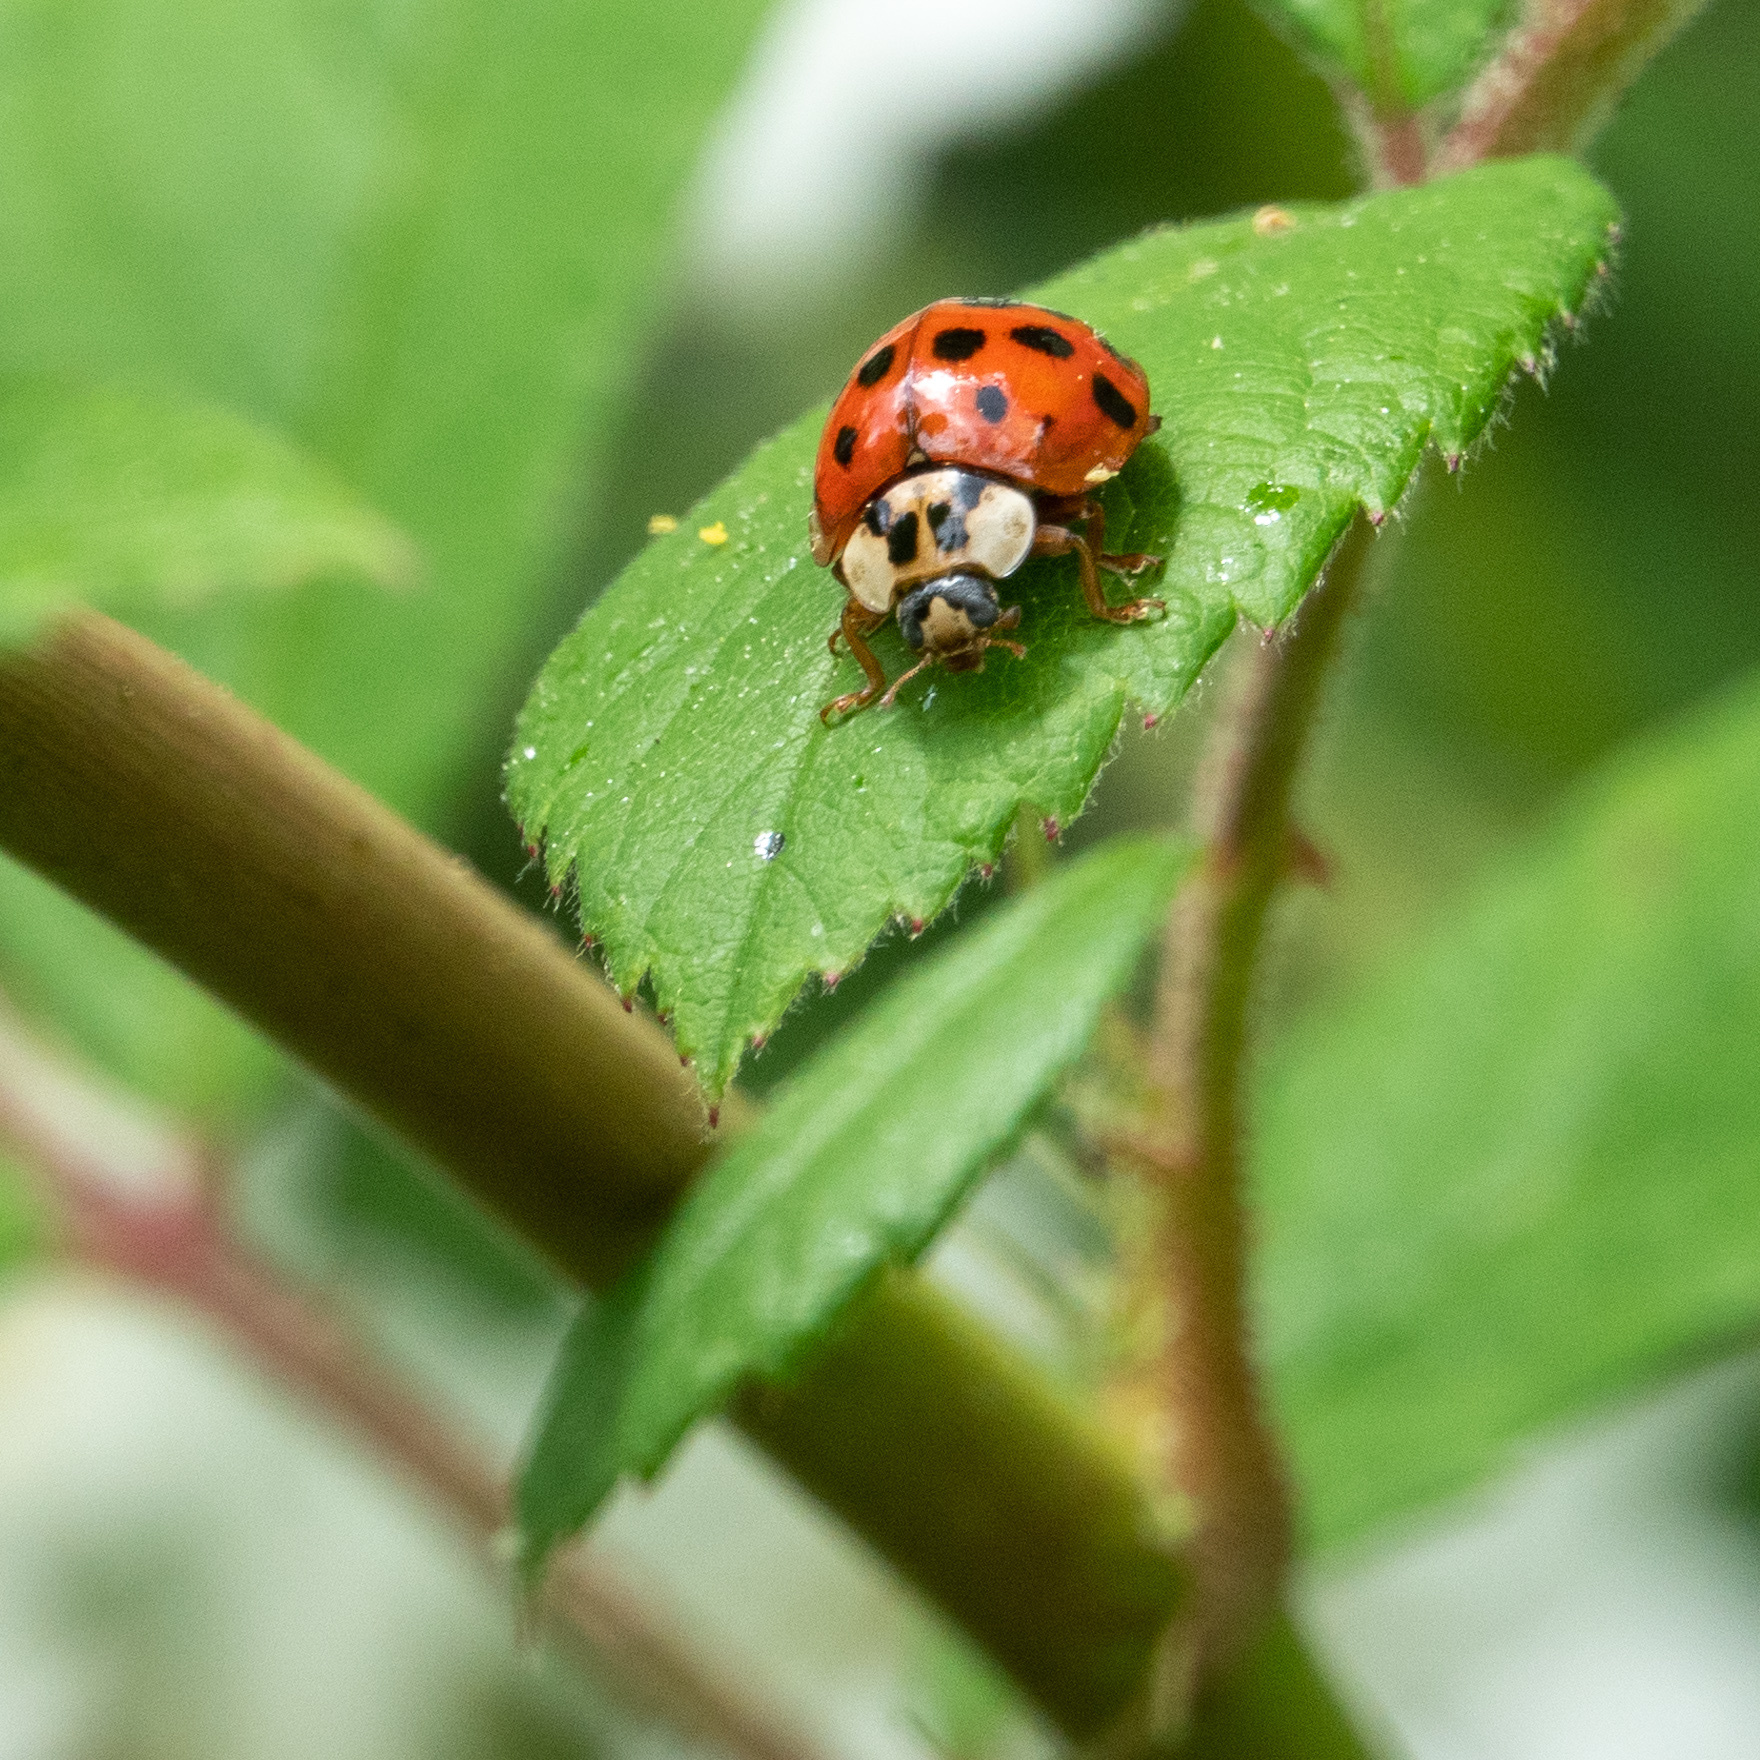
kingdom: Animalia
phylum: Arthropoda
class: Insecta
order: Coleoptera
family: Coccinellidae
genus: Harmonia
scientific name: Harmonia axyridis
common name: Harlequin ladybird
